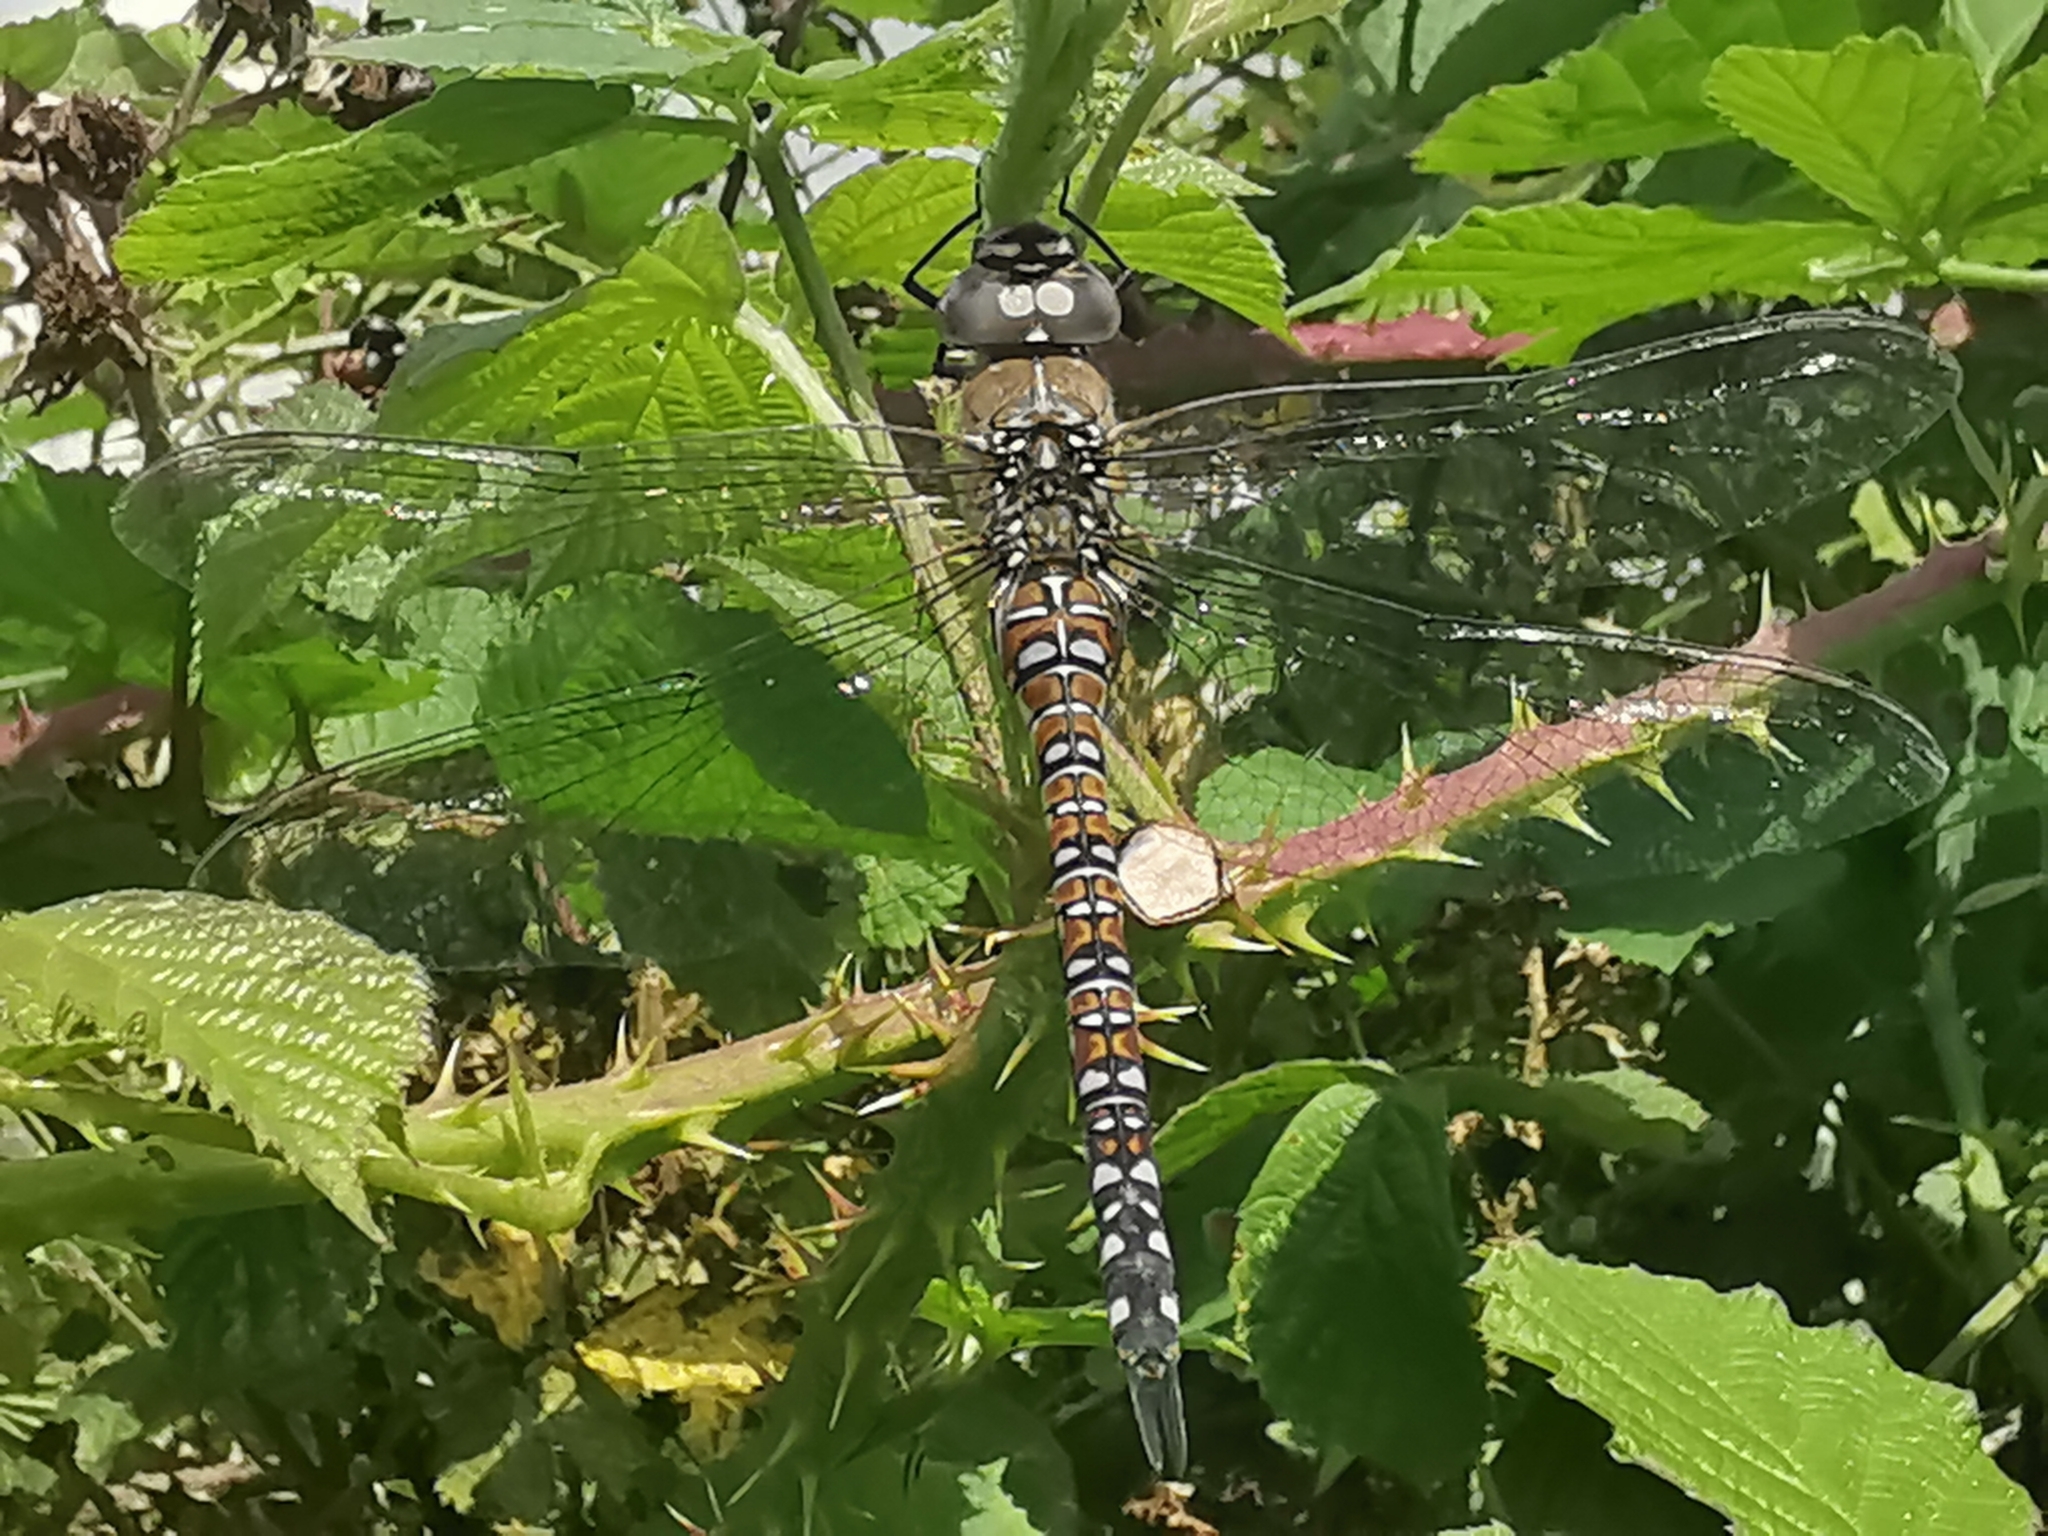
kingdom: Animalia
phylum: Arthropoda
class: Insecta
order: Odonata
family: Aeshnidae
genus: Aeshna
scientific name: Aeshna mixta
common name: Migrant hawker
